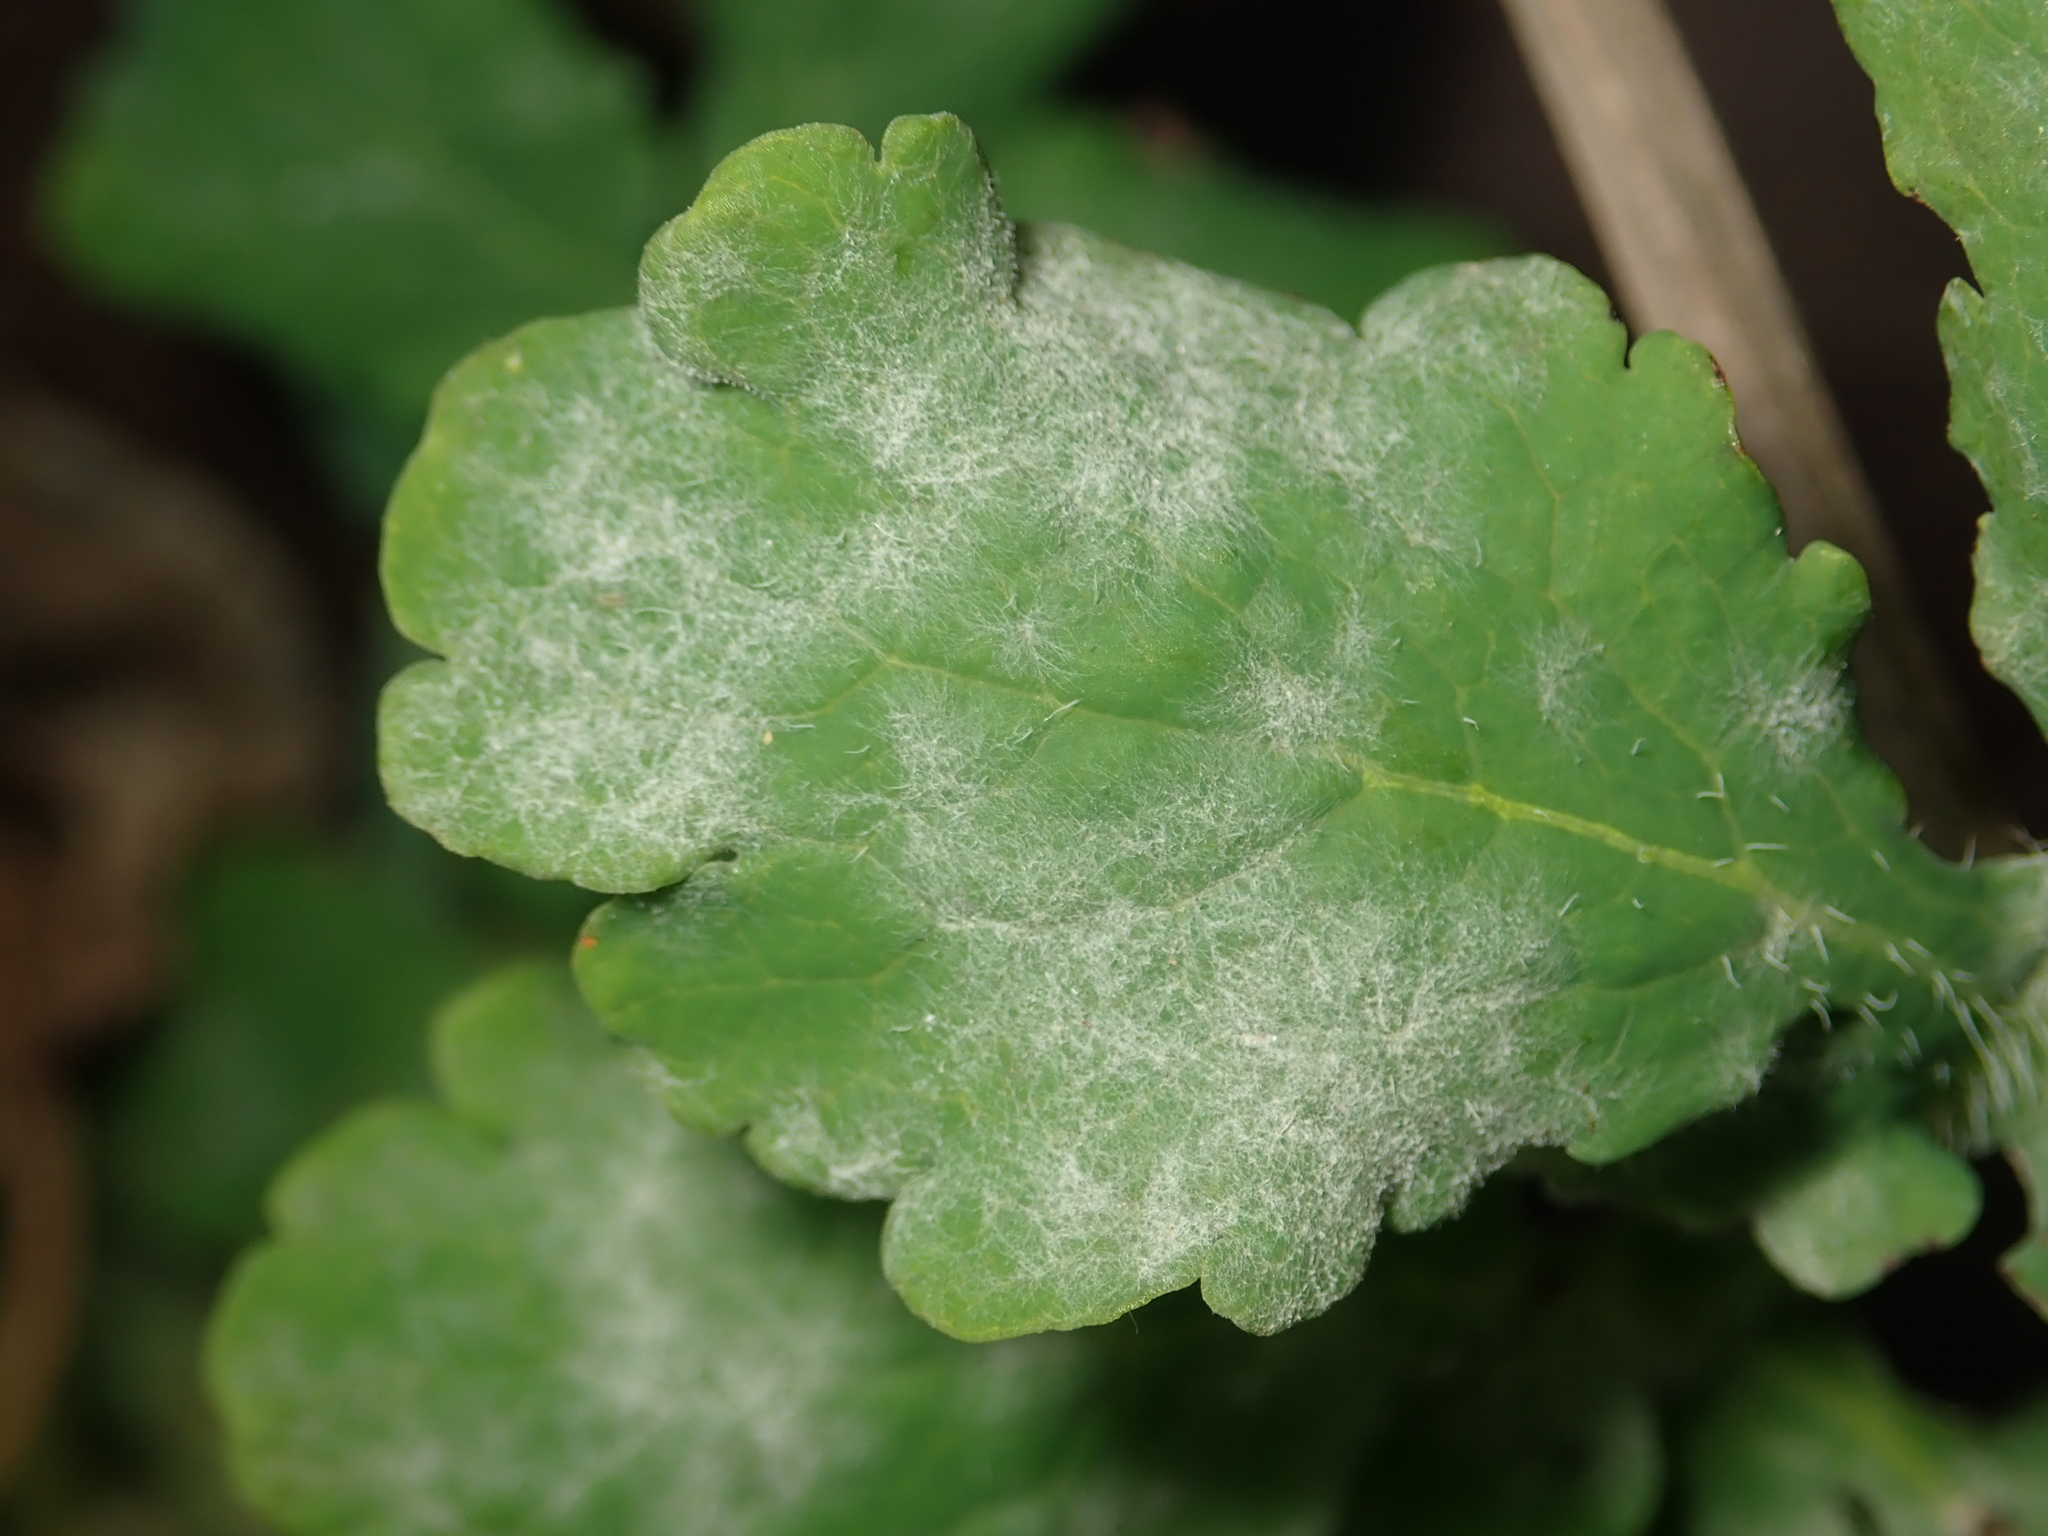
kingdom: Fungi
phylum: Ascomycota
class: Leotiomycetes
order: Helotiales
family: Erysiphaceae
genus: Erysiphe
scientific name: Erysiphe macleayae
